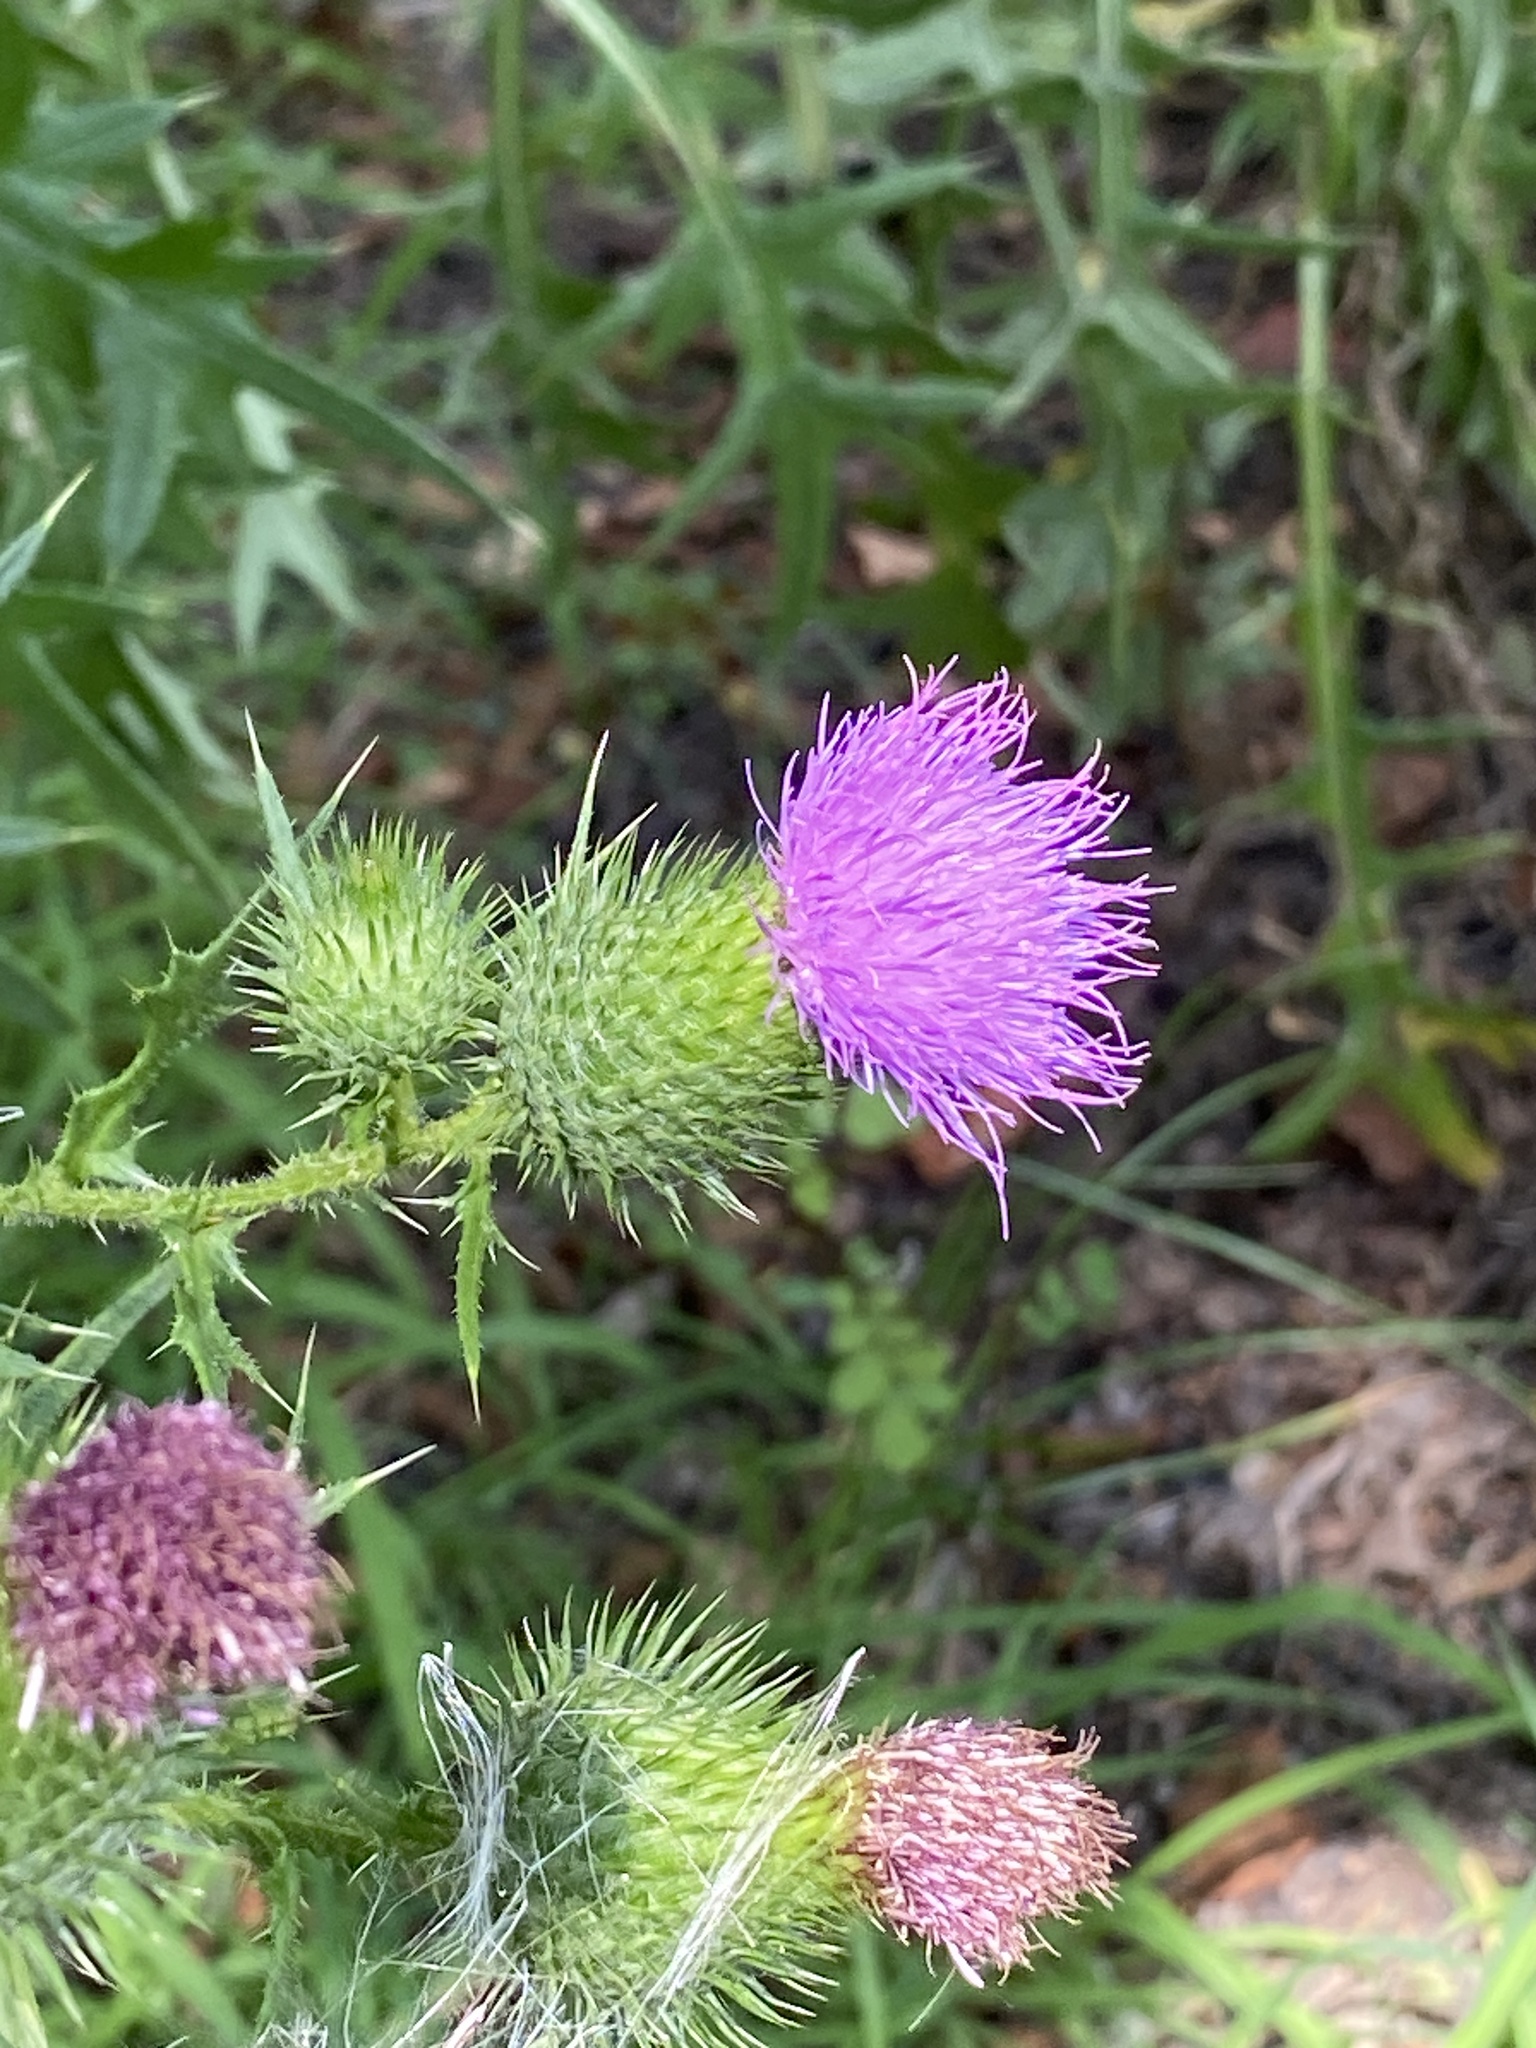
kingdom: Plantae
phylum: Tracheophyta
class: Magnoliopsida
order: Asterales
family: Asteraceae
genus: Cirsium
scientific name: Cirsium vulgare
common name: Bull thistle
